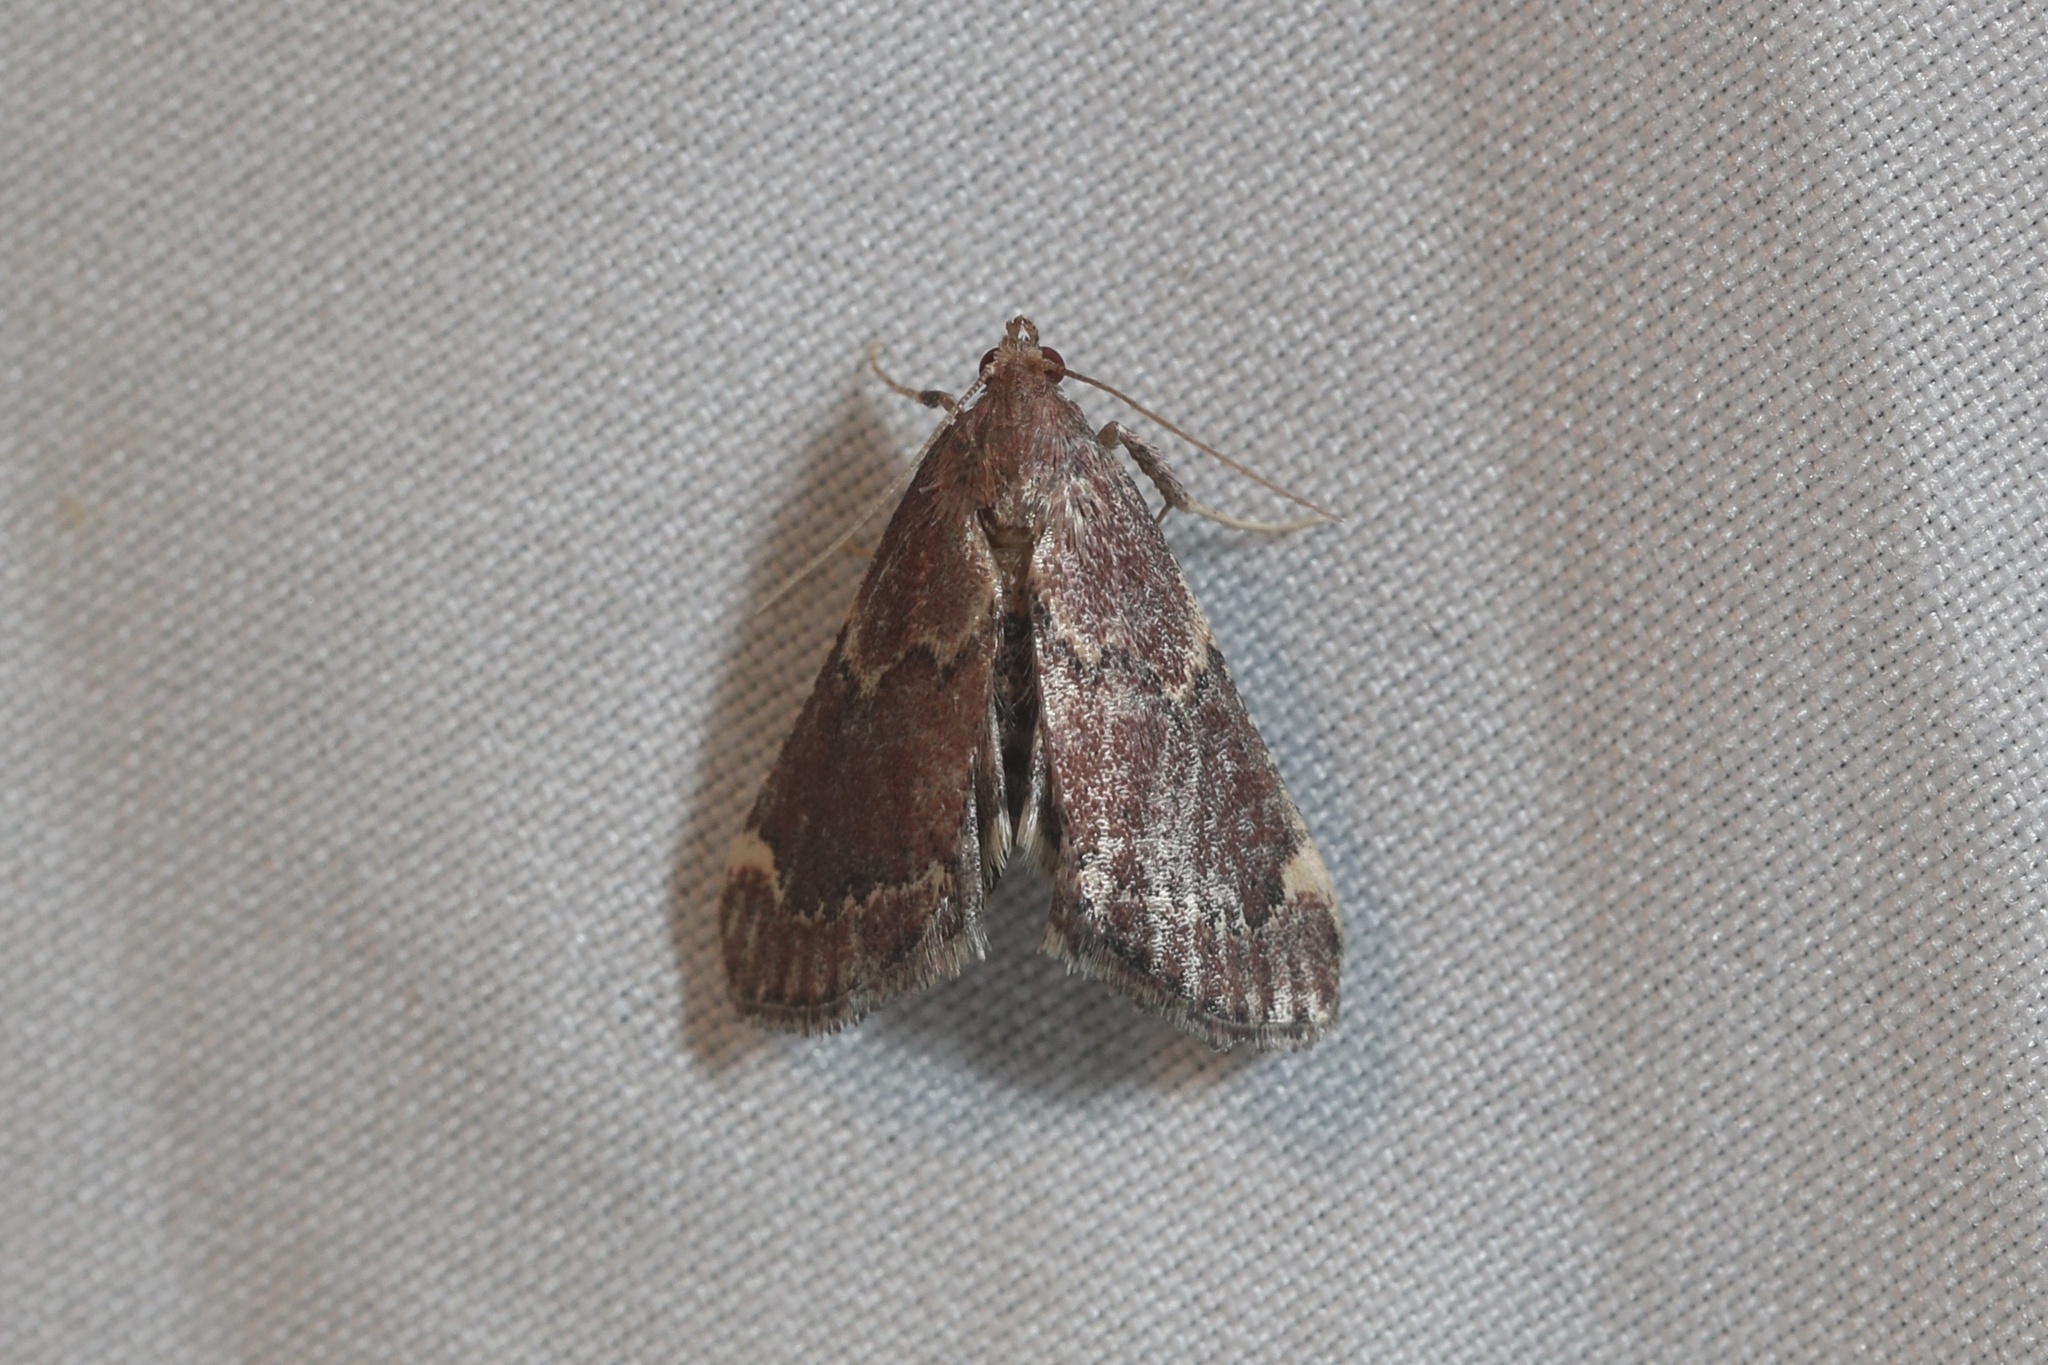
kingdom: Animalia
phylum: Arthropoda
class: Insecta
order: Lepidoptera
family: Pyralidae
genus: Hypsopygia
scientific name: Hypsopygia intermedialis
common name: Red-shawled moth
